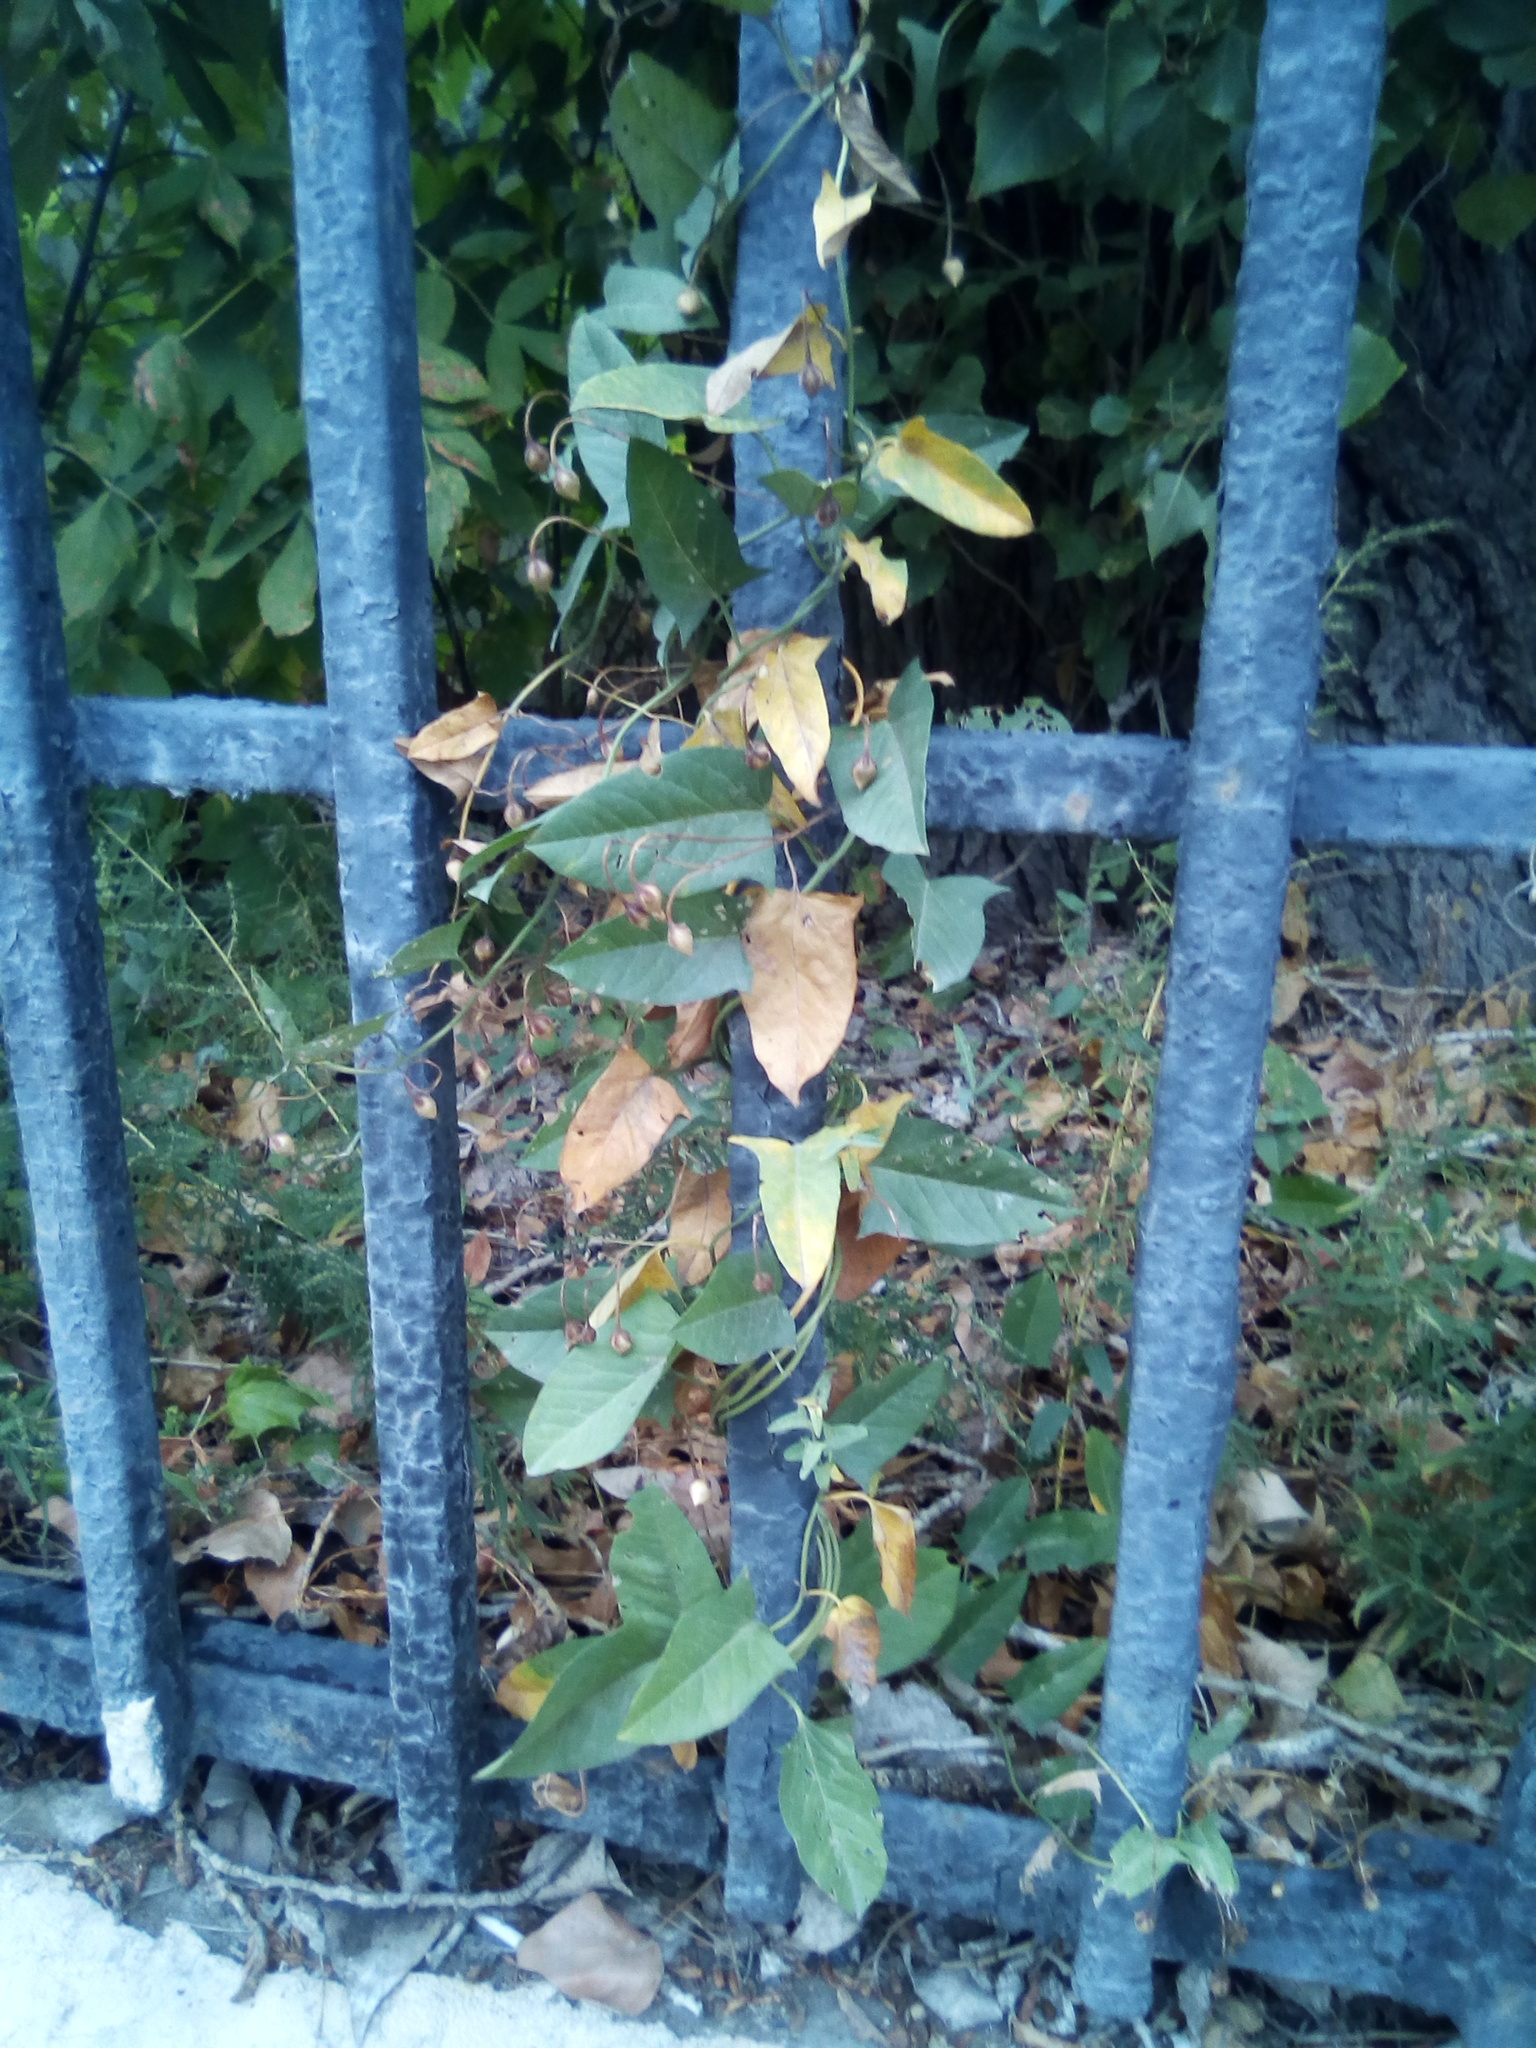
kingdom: Plantae
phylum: Tracheophyta
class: Magnoliopsida
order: Solanales
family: Convolvulaceae
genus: Convolvulus
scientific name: Convolvulus arvensis
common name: Field bindweed
